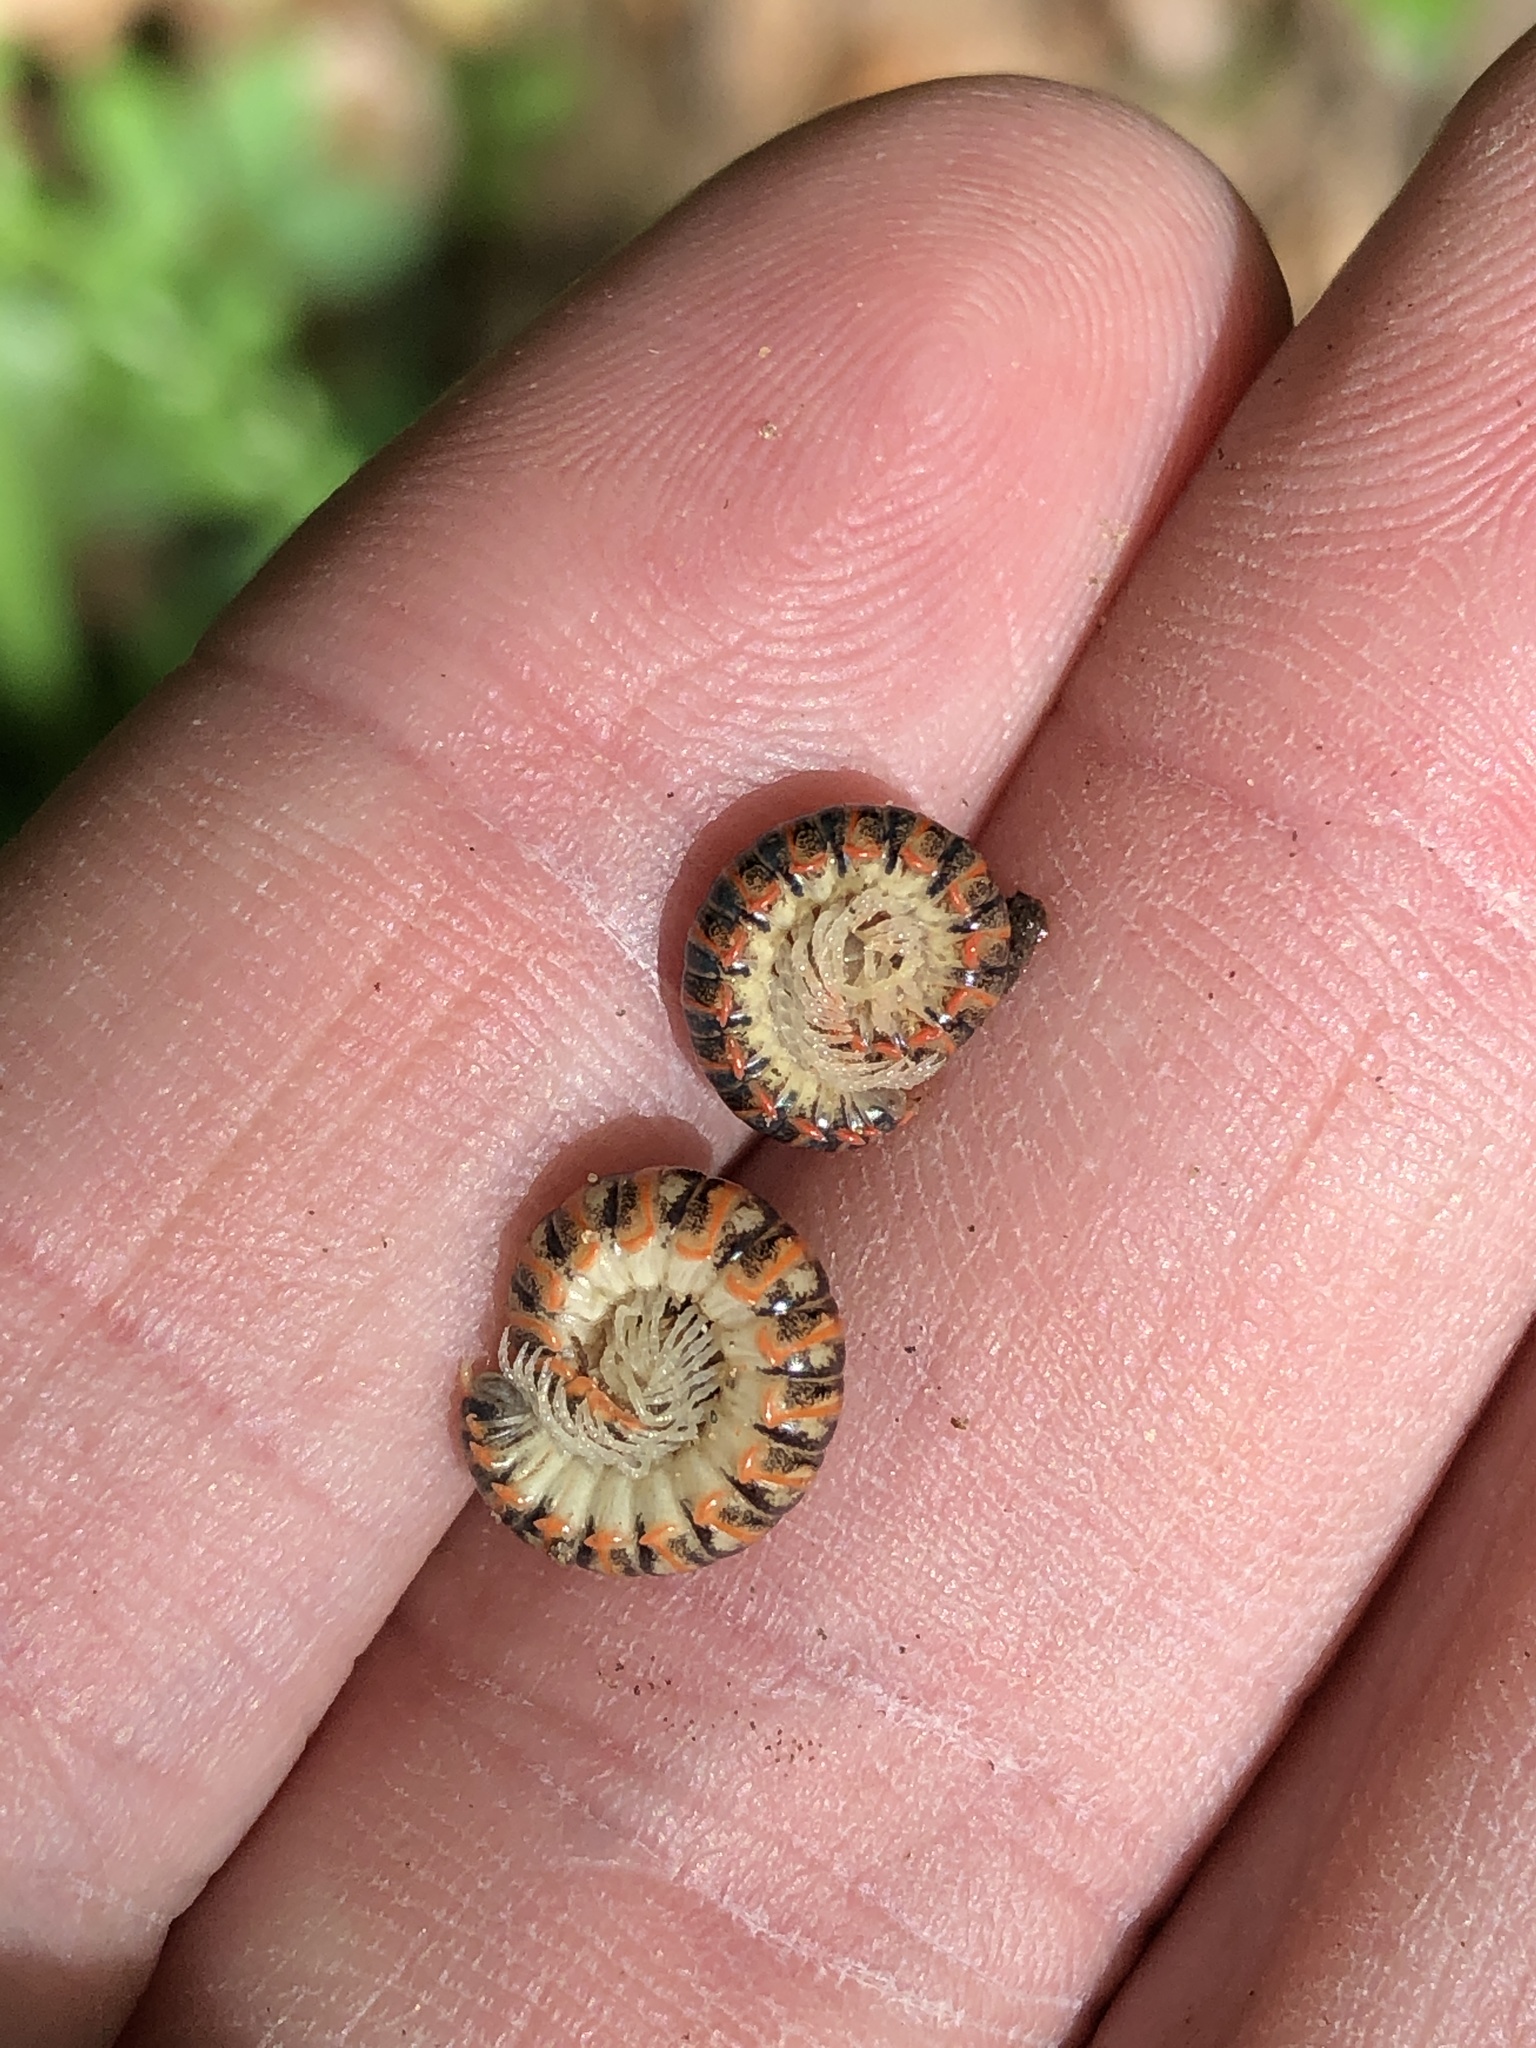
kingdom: Animalia
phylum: Arthropoda
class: Diplopoda
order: Polydesmida
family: Xystodesmidae
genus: Eurymerodesmus
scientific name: Eurymerodesmus mundus
